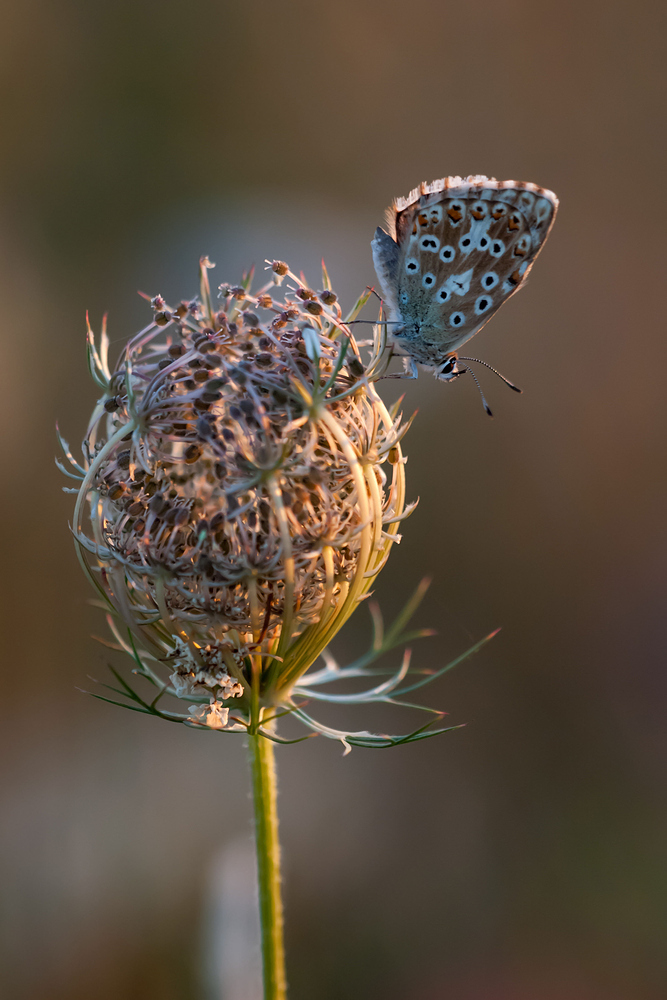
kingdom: Animalia
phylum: Arthropoda
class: Insecta
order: Lepidoptera
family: Lycaenidae
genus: Lysandra
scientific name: Lysandra coridon
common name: Chalkhill blue
